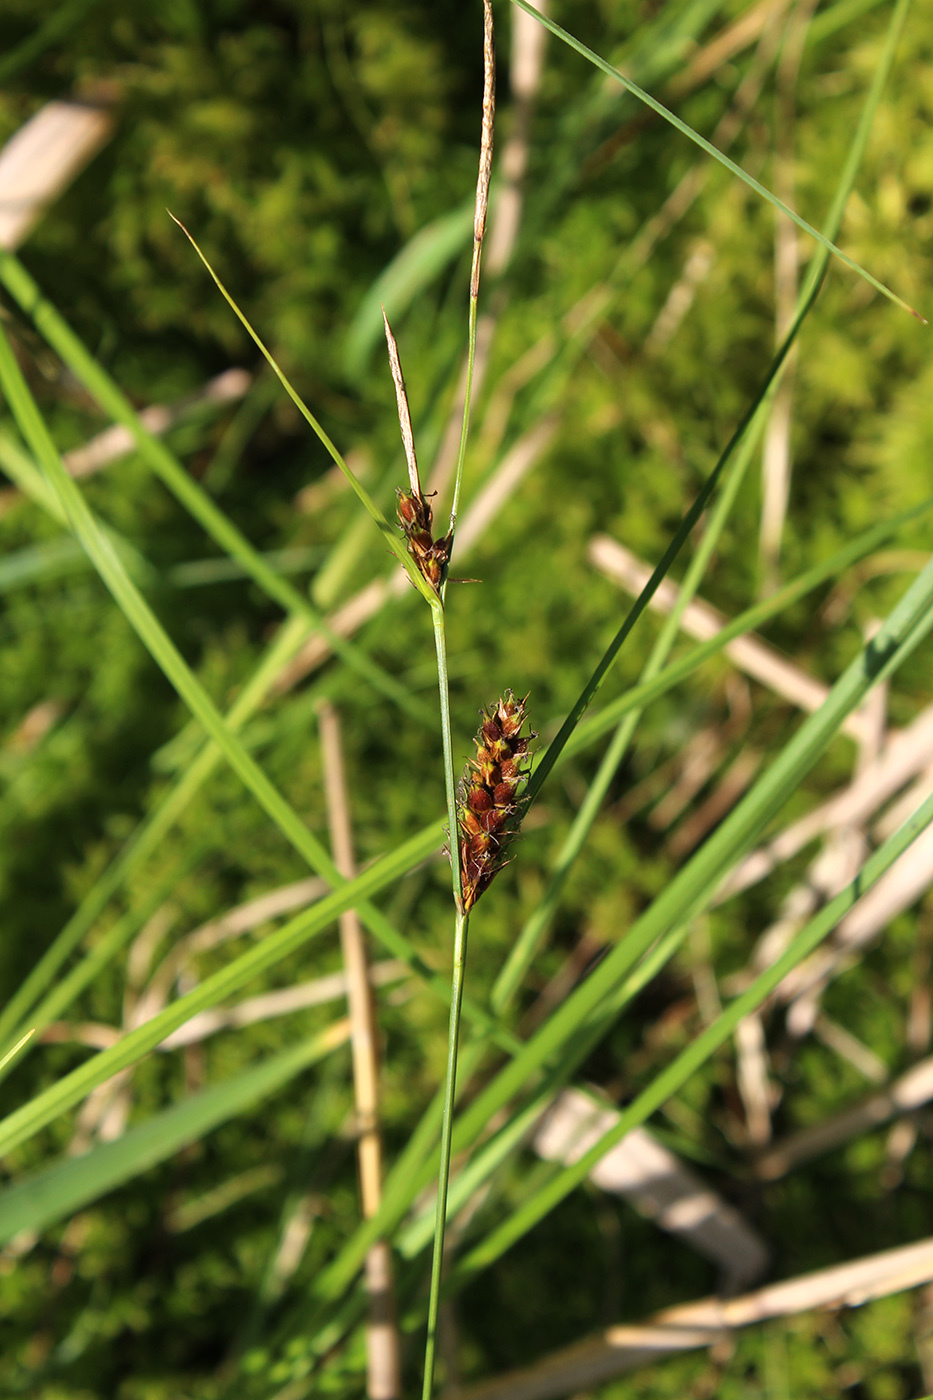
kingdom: Plantae
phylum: Tracheophyta
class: Liliopsida
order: Poales
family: Cyperaceae
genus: Carex
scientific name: Carex lasiocarpa
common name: Slender sedge
